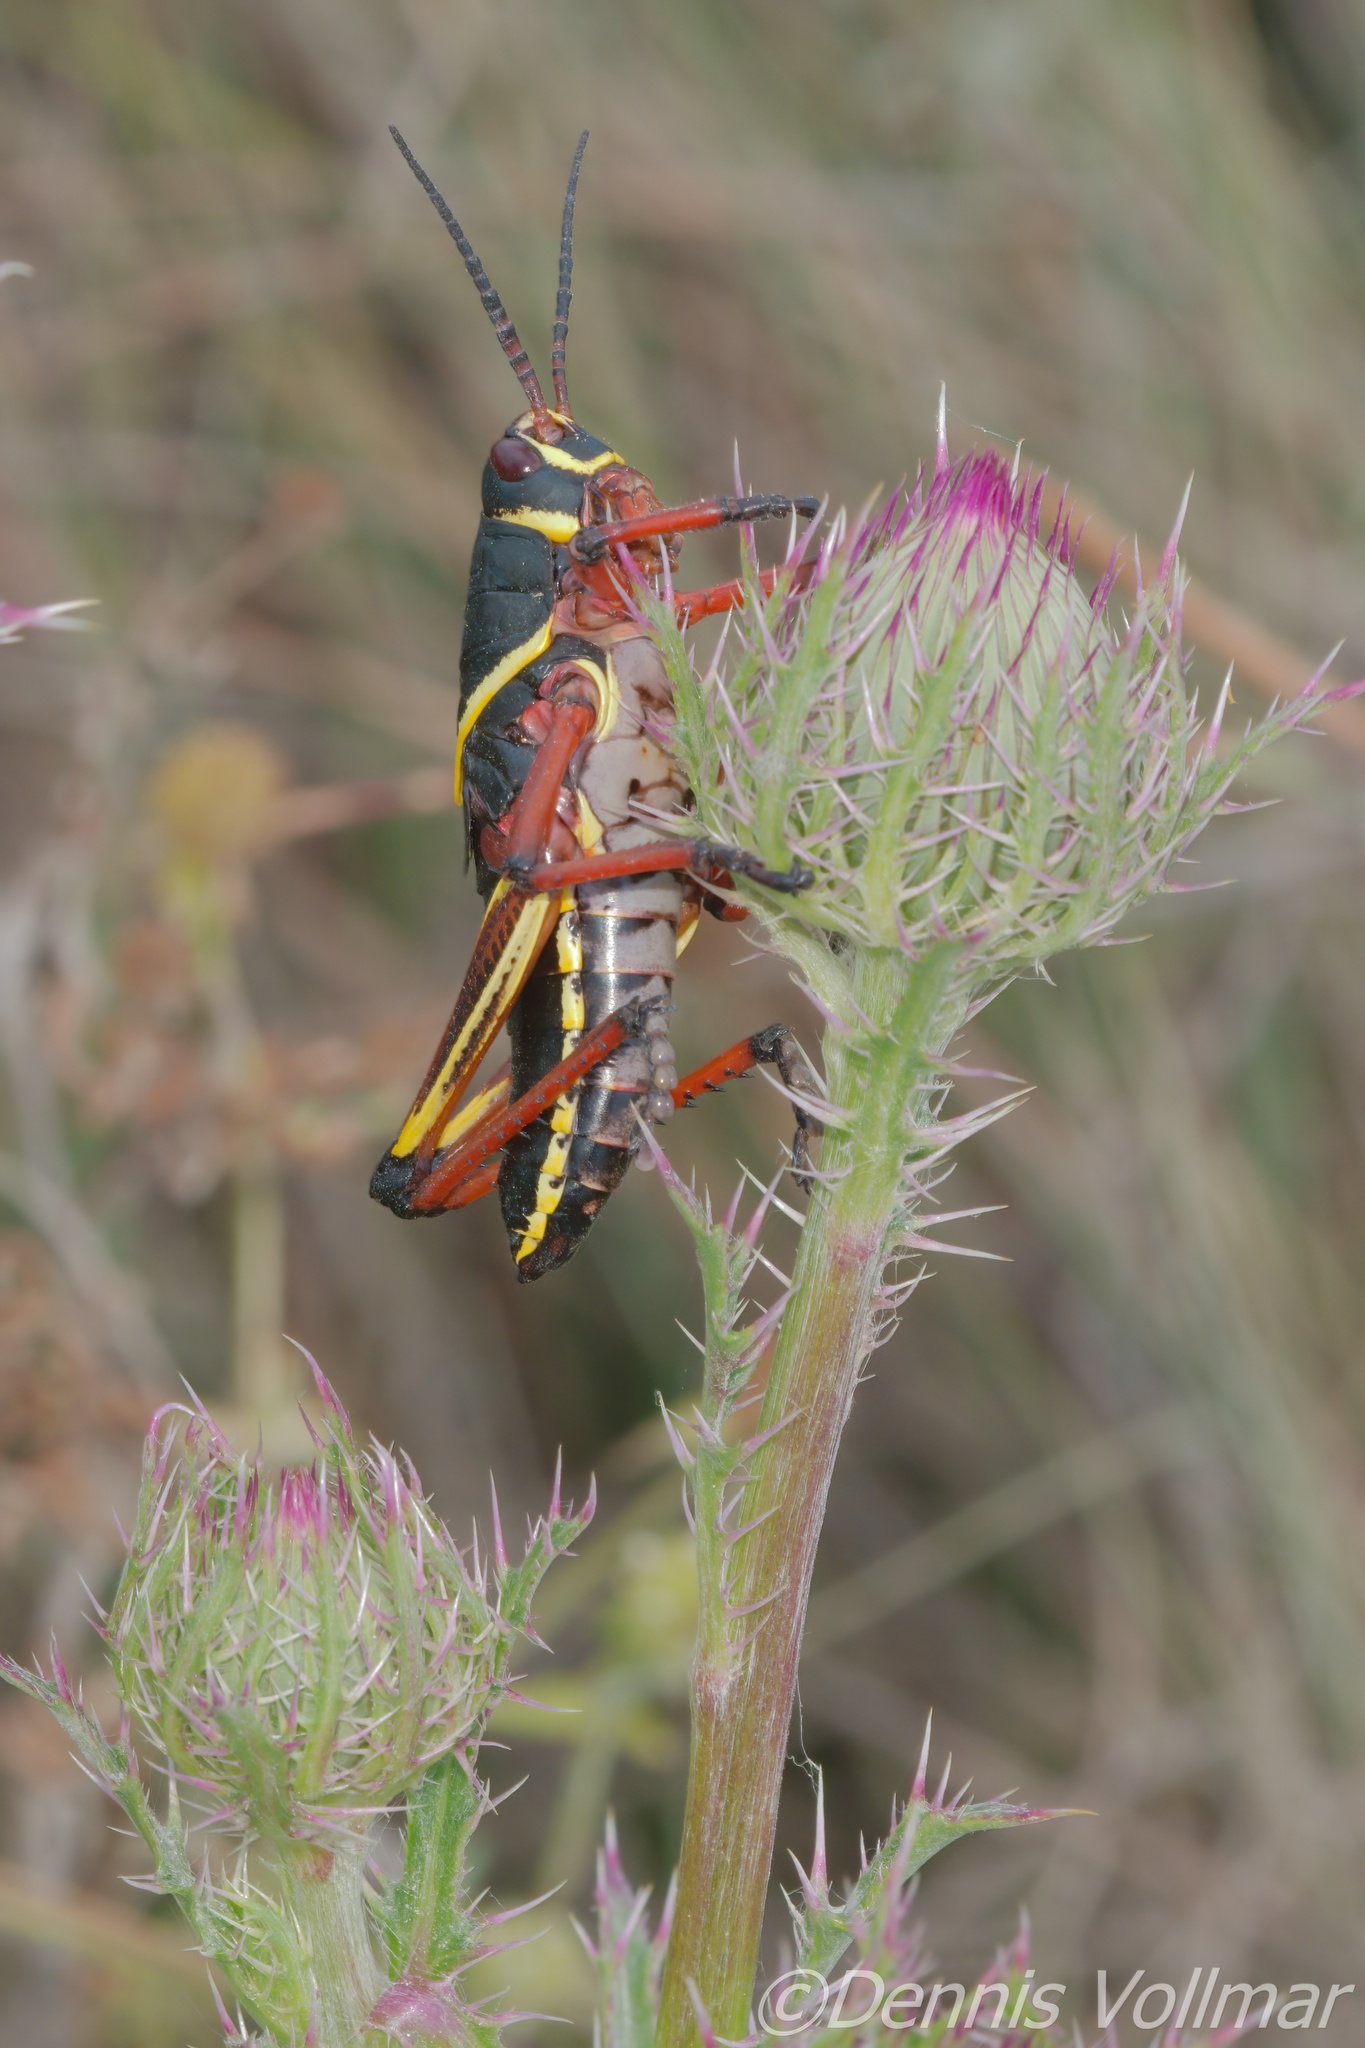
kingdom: Animalia
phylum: Arthropoda
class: Insecta
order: Orthoptera
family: Romaleidae
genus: Romalea
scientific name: Romalea microptera
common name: Eastern lubber grasshopper
